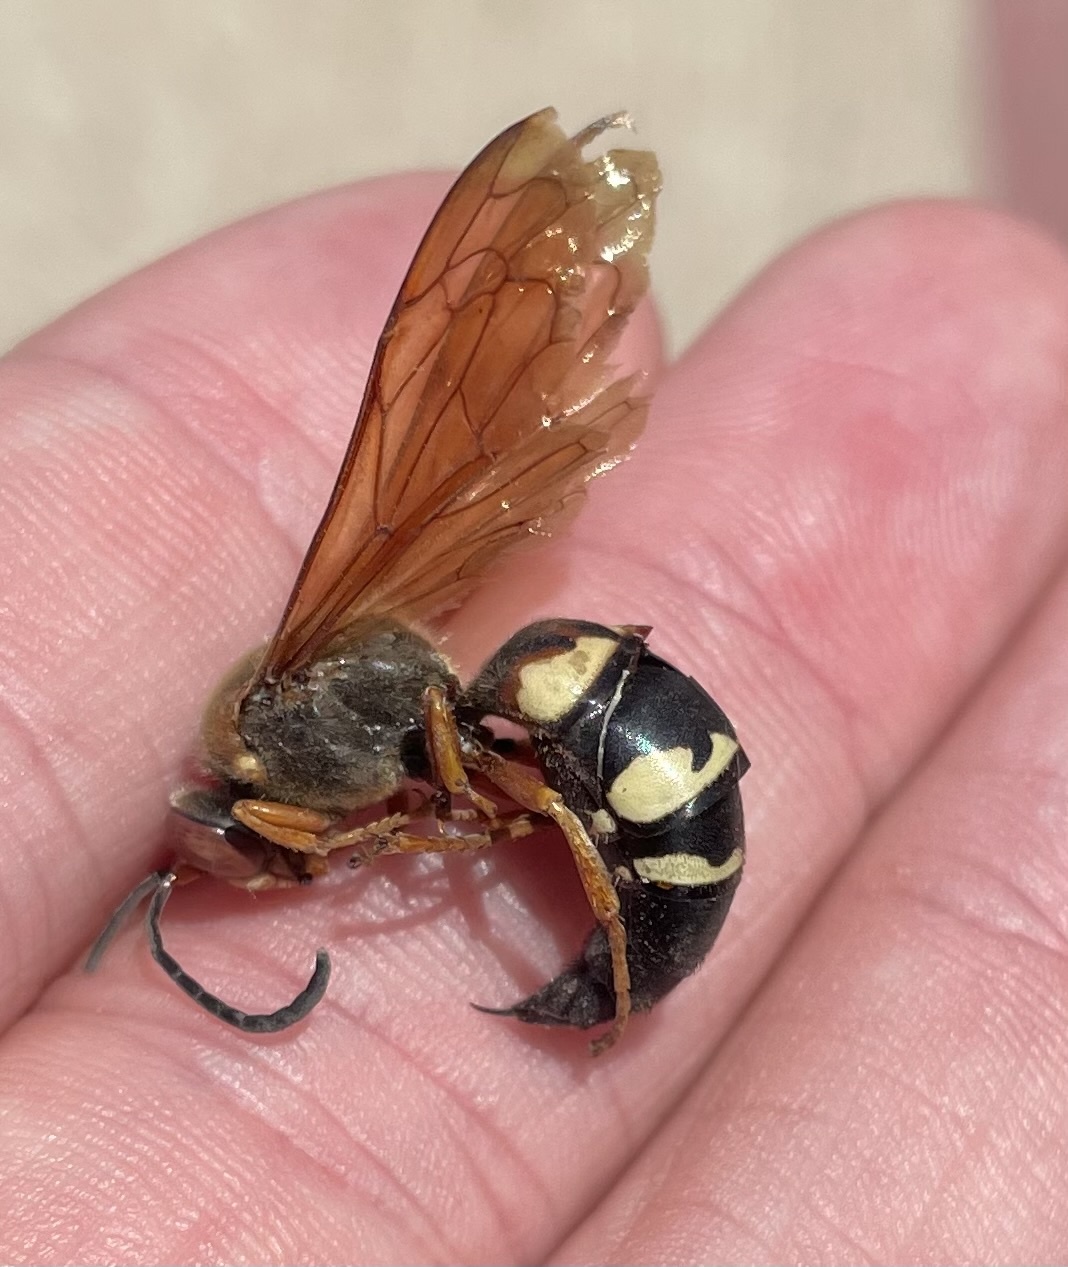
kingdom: Animalia
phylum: Arthropoda
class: Insecta
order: Hymenoptera
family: Crabronidae
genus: Sphecius
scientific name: Sphecius speciosus
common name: Cicada killer
